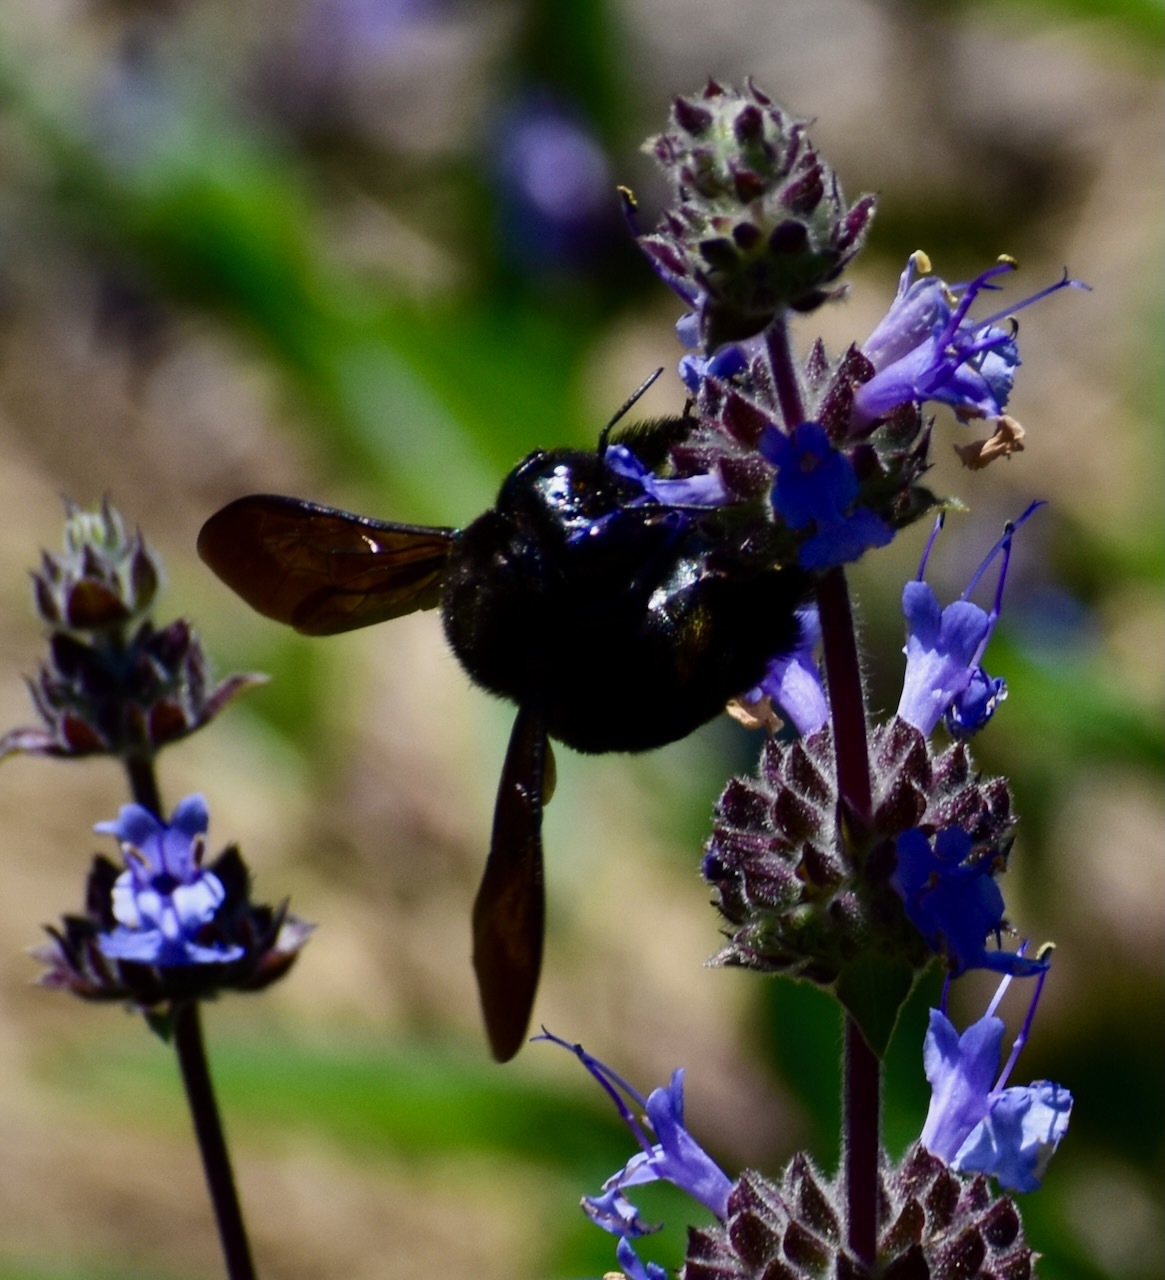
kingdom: Animalia
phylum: Arthropoda
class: Insecta
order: Hymenoptera
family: Apidae
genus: Xylocopa
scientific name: Xylocopa sonorina
